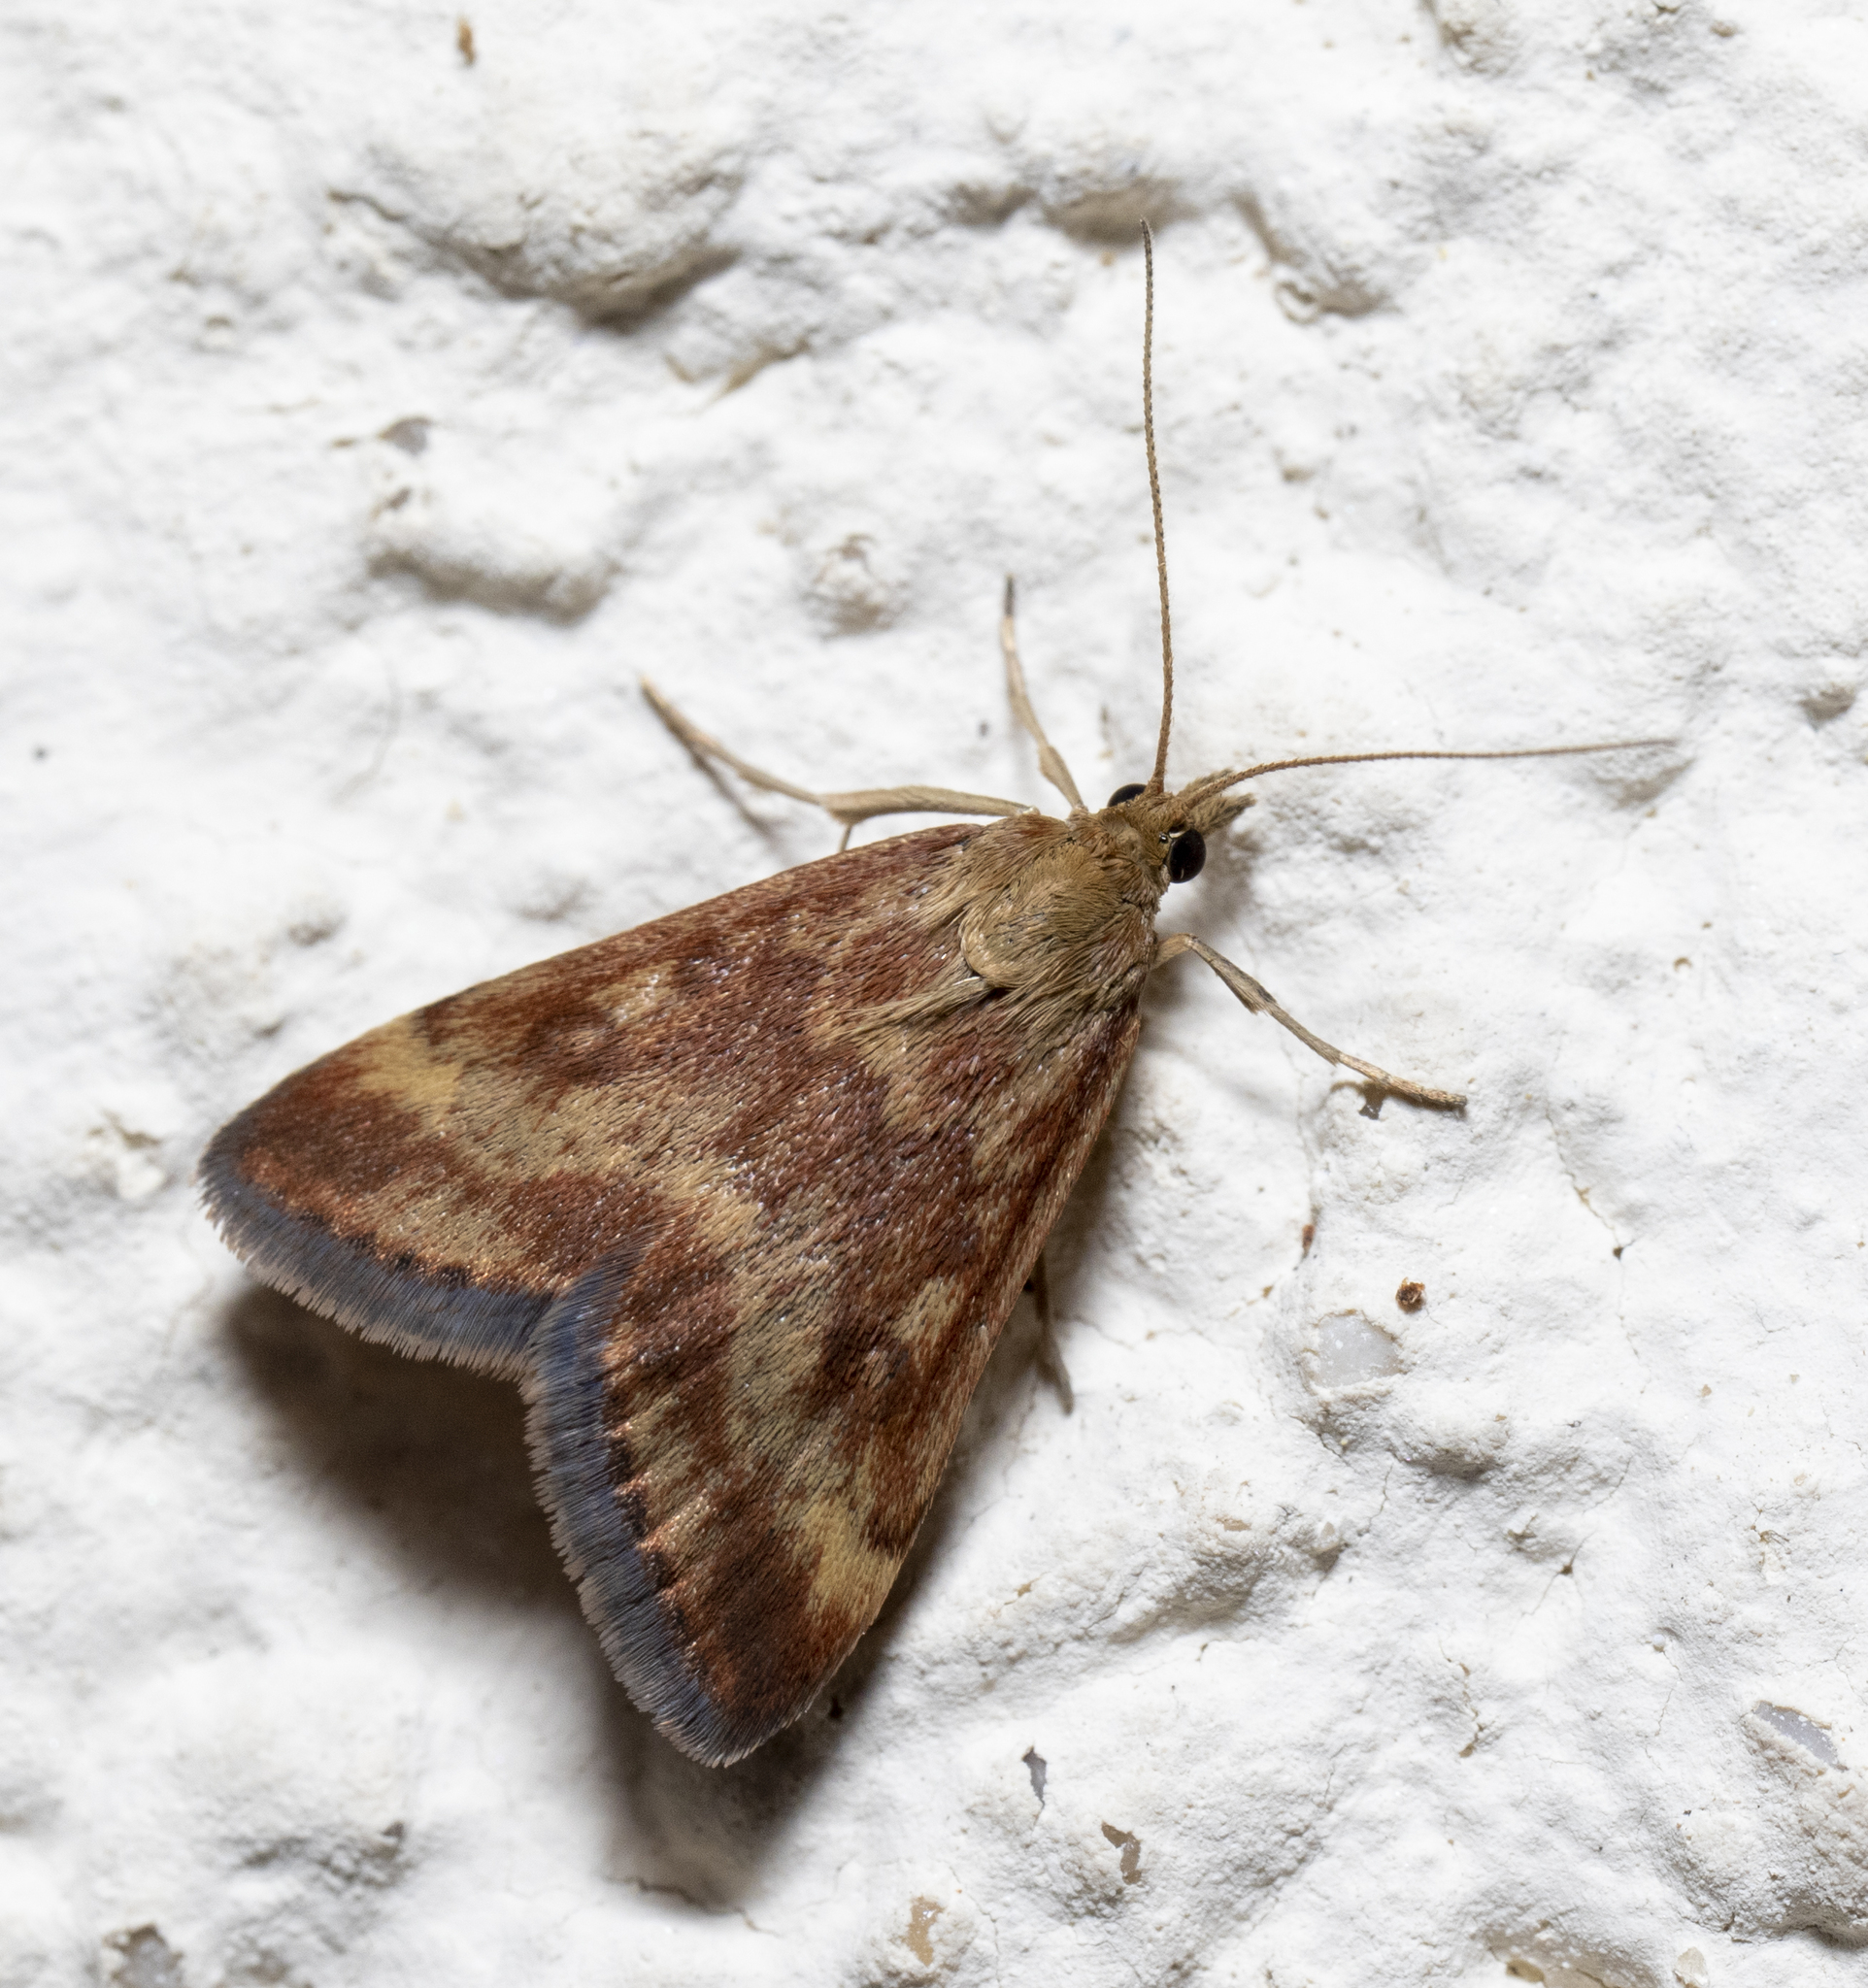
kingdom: Animalia
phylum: Arthropoda
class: Insecta
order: Lepidoptera
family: Crambidae
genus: Pyrausta
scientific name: Pyrausta despicata
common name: Straw-barred pearl
